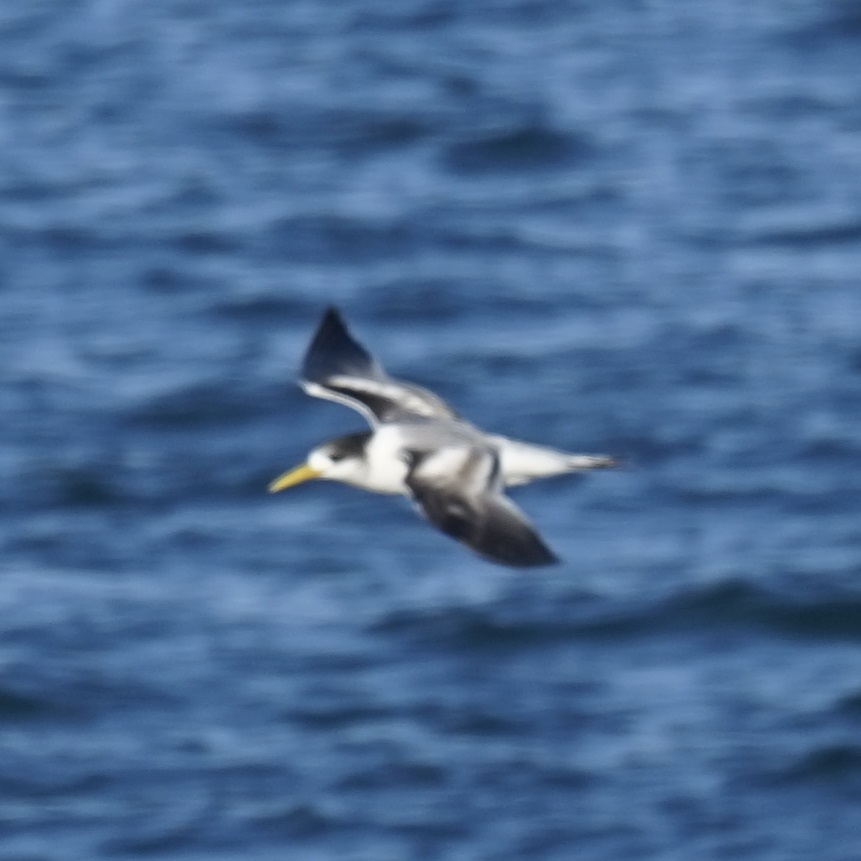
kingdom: Animalia
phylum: Chordata
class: Aves
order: Charadriiformes
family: Laridae
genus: Thalasseus
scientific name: Thalasseus bergii
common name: Greater crested tern
